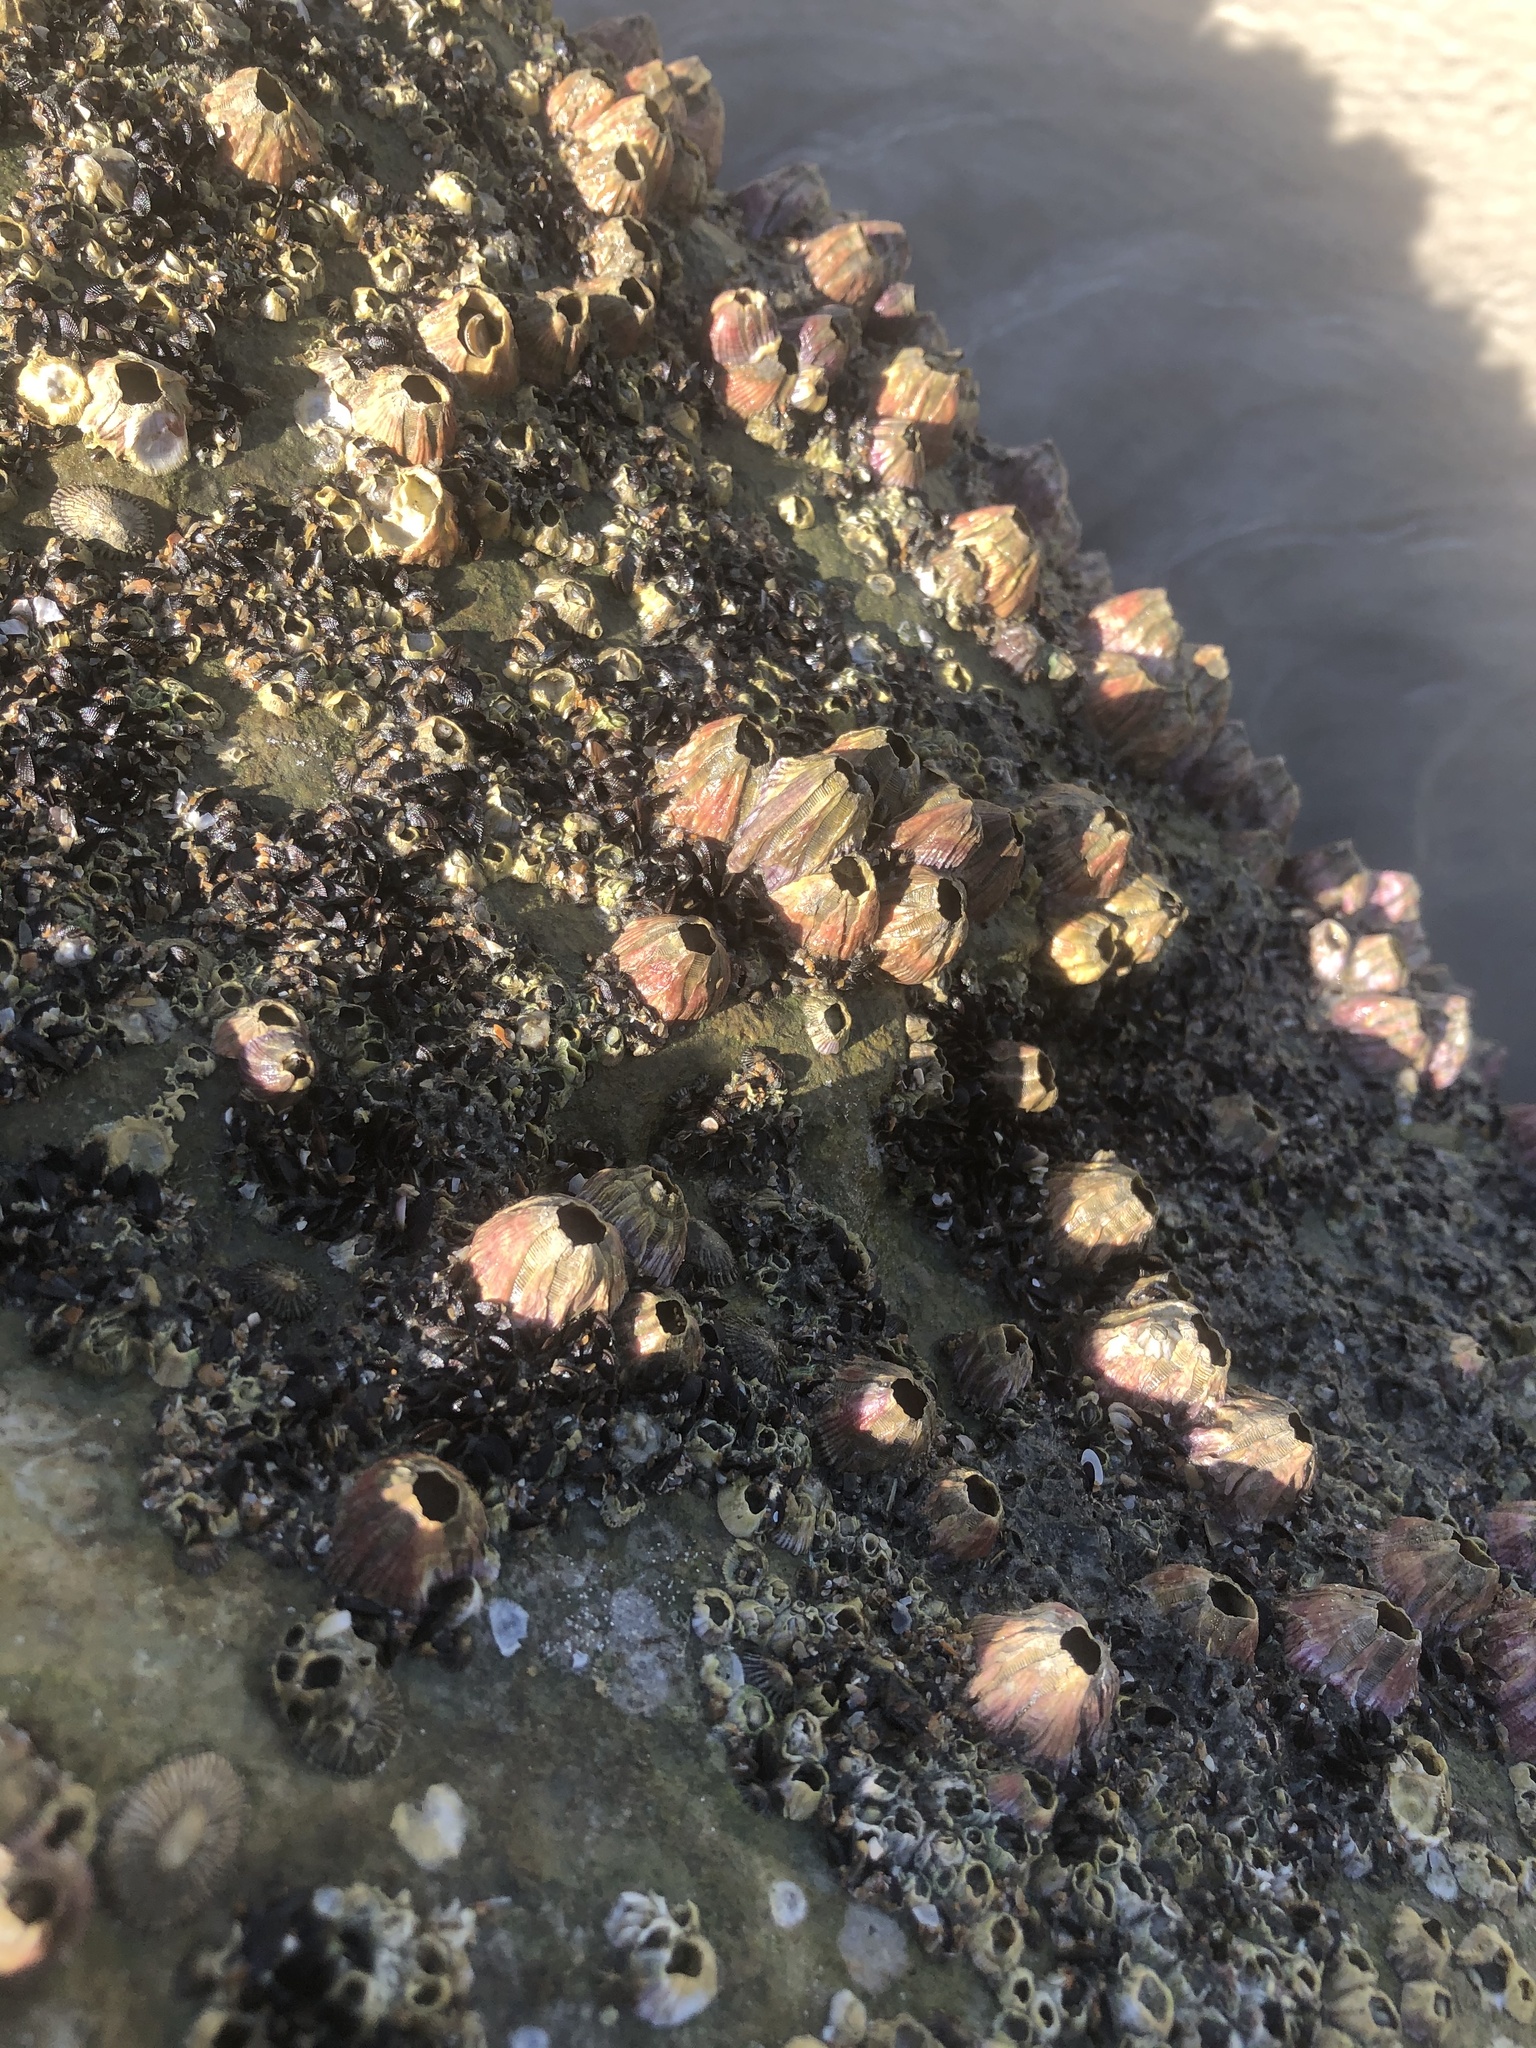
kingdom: Animalia
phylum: Arthropoda
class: Maxillopoda
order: Sessilia
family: Balanidae
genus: Megabalanus
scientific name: Megabalanus tintinnabulum
